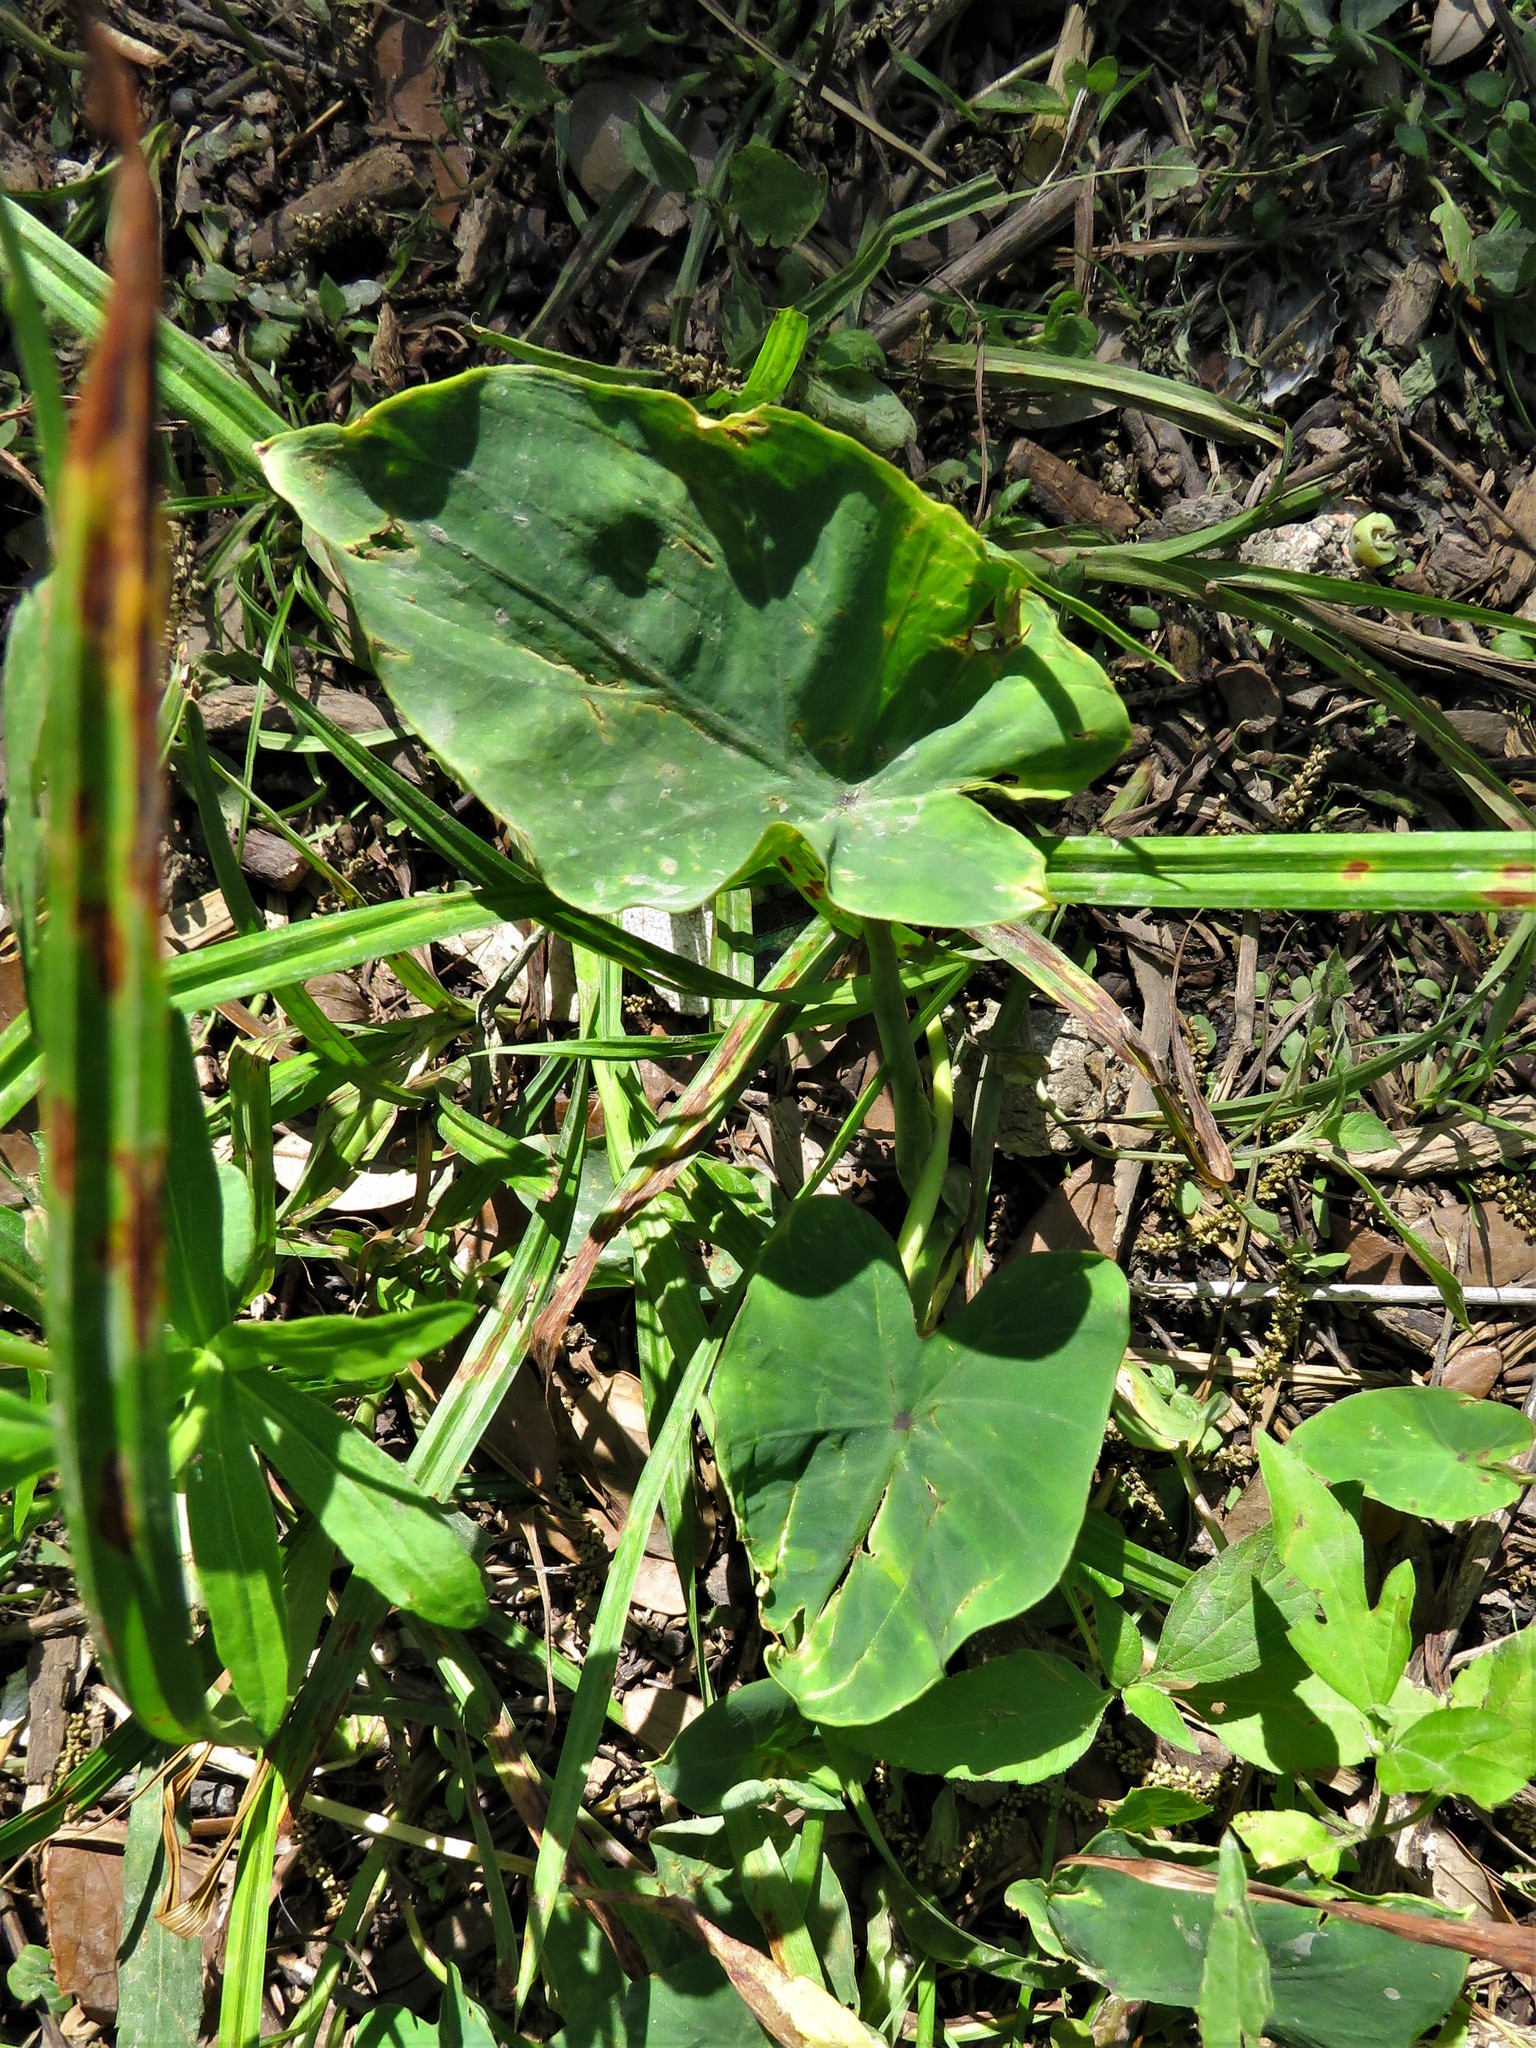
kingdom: Plantae
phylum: Tracheophyta
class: Liliopsida
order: Alismatales
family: Araceae
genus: Colocasia
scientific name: Colocasia esculenta
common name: Taro
